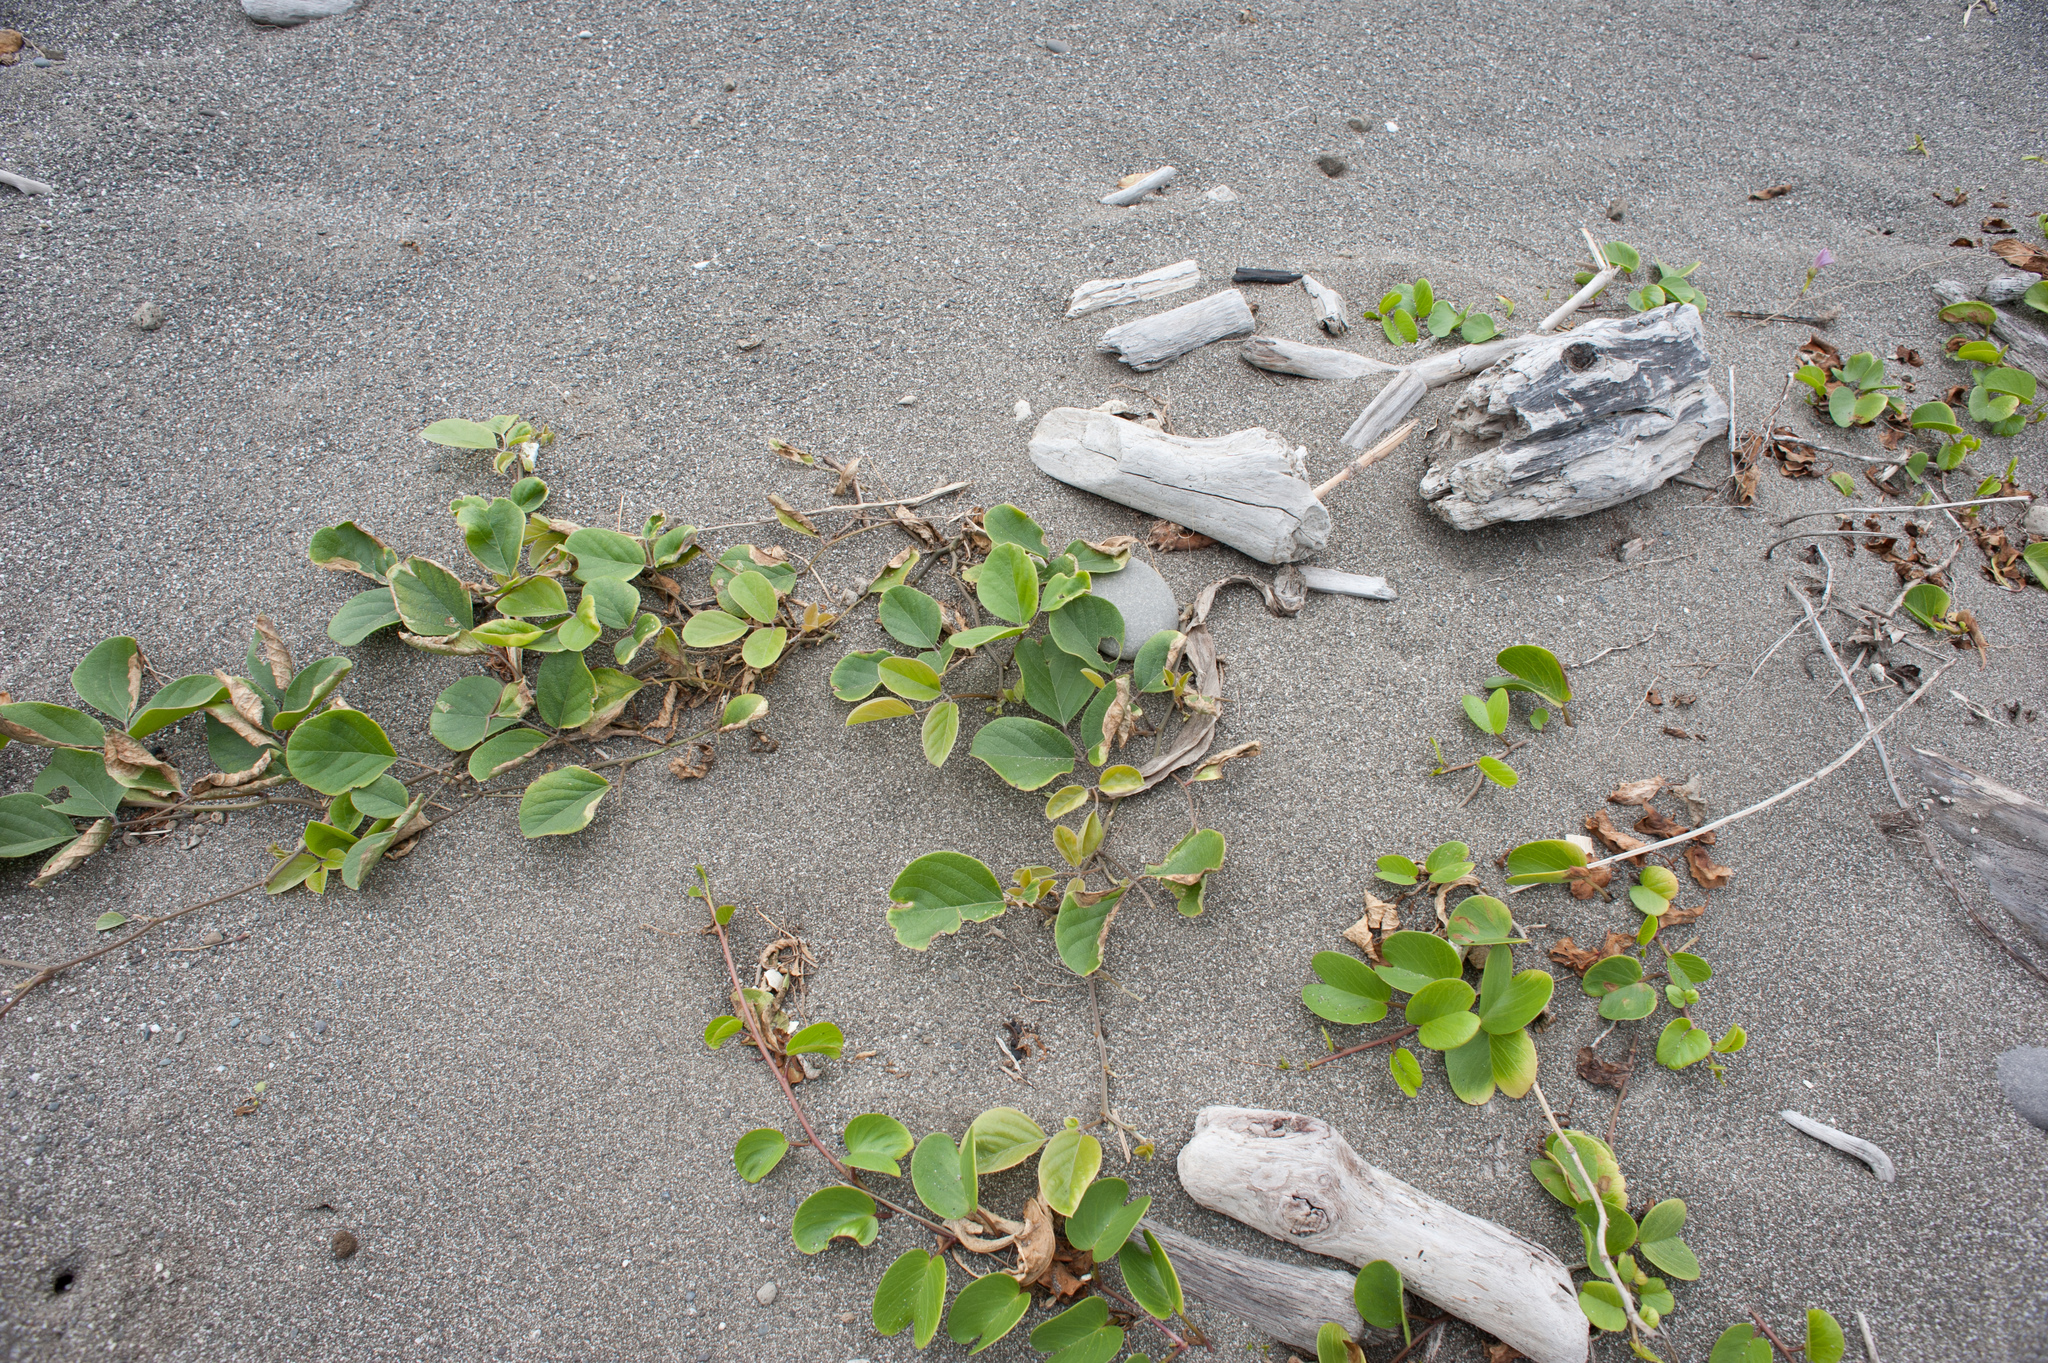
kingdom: Plantae
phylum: Tracheophyta
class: Magnoliopsida
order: Solanales
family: Convolvulaceae
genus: Ipomoea
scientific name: Ipomoea pes-caprae
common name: Beach morning glory
